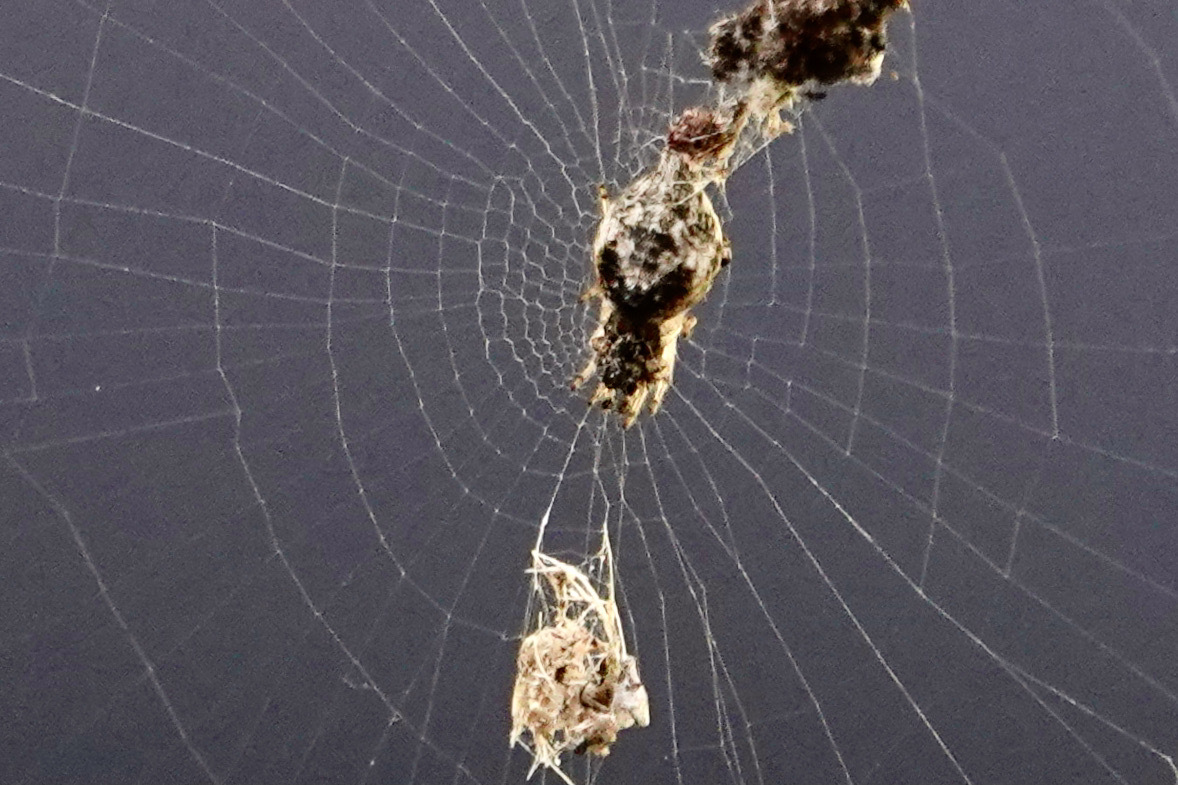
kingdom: Animalia
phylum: Arthropoda
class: Arachnida
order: Araneae
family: Araneidae
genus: Cyclosa
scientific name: Cyclosa turbinata
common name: Orb weavers
